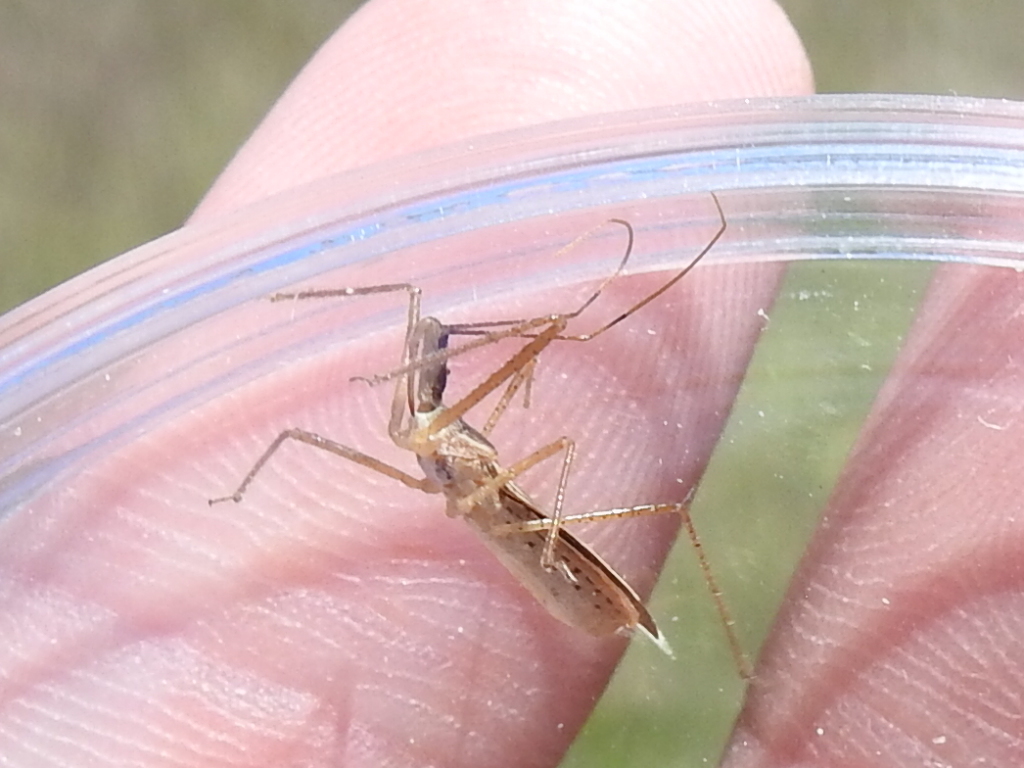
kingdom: Animalia
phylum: Arthropoda
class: Insecta
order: Hemiptera
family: Reduviidae
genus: Zelus
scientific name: Zelus cervicalis
